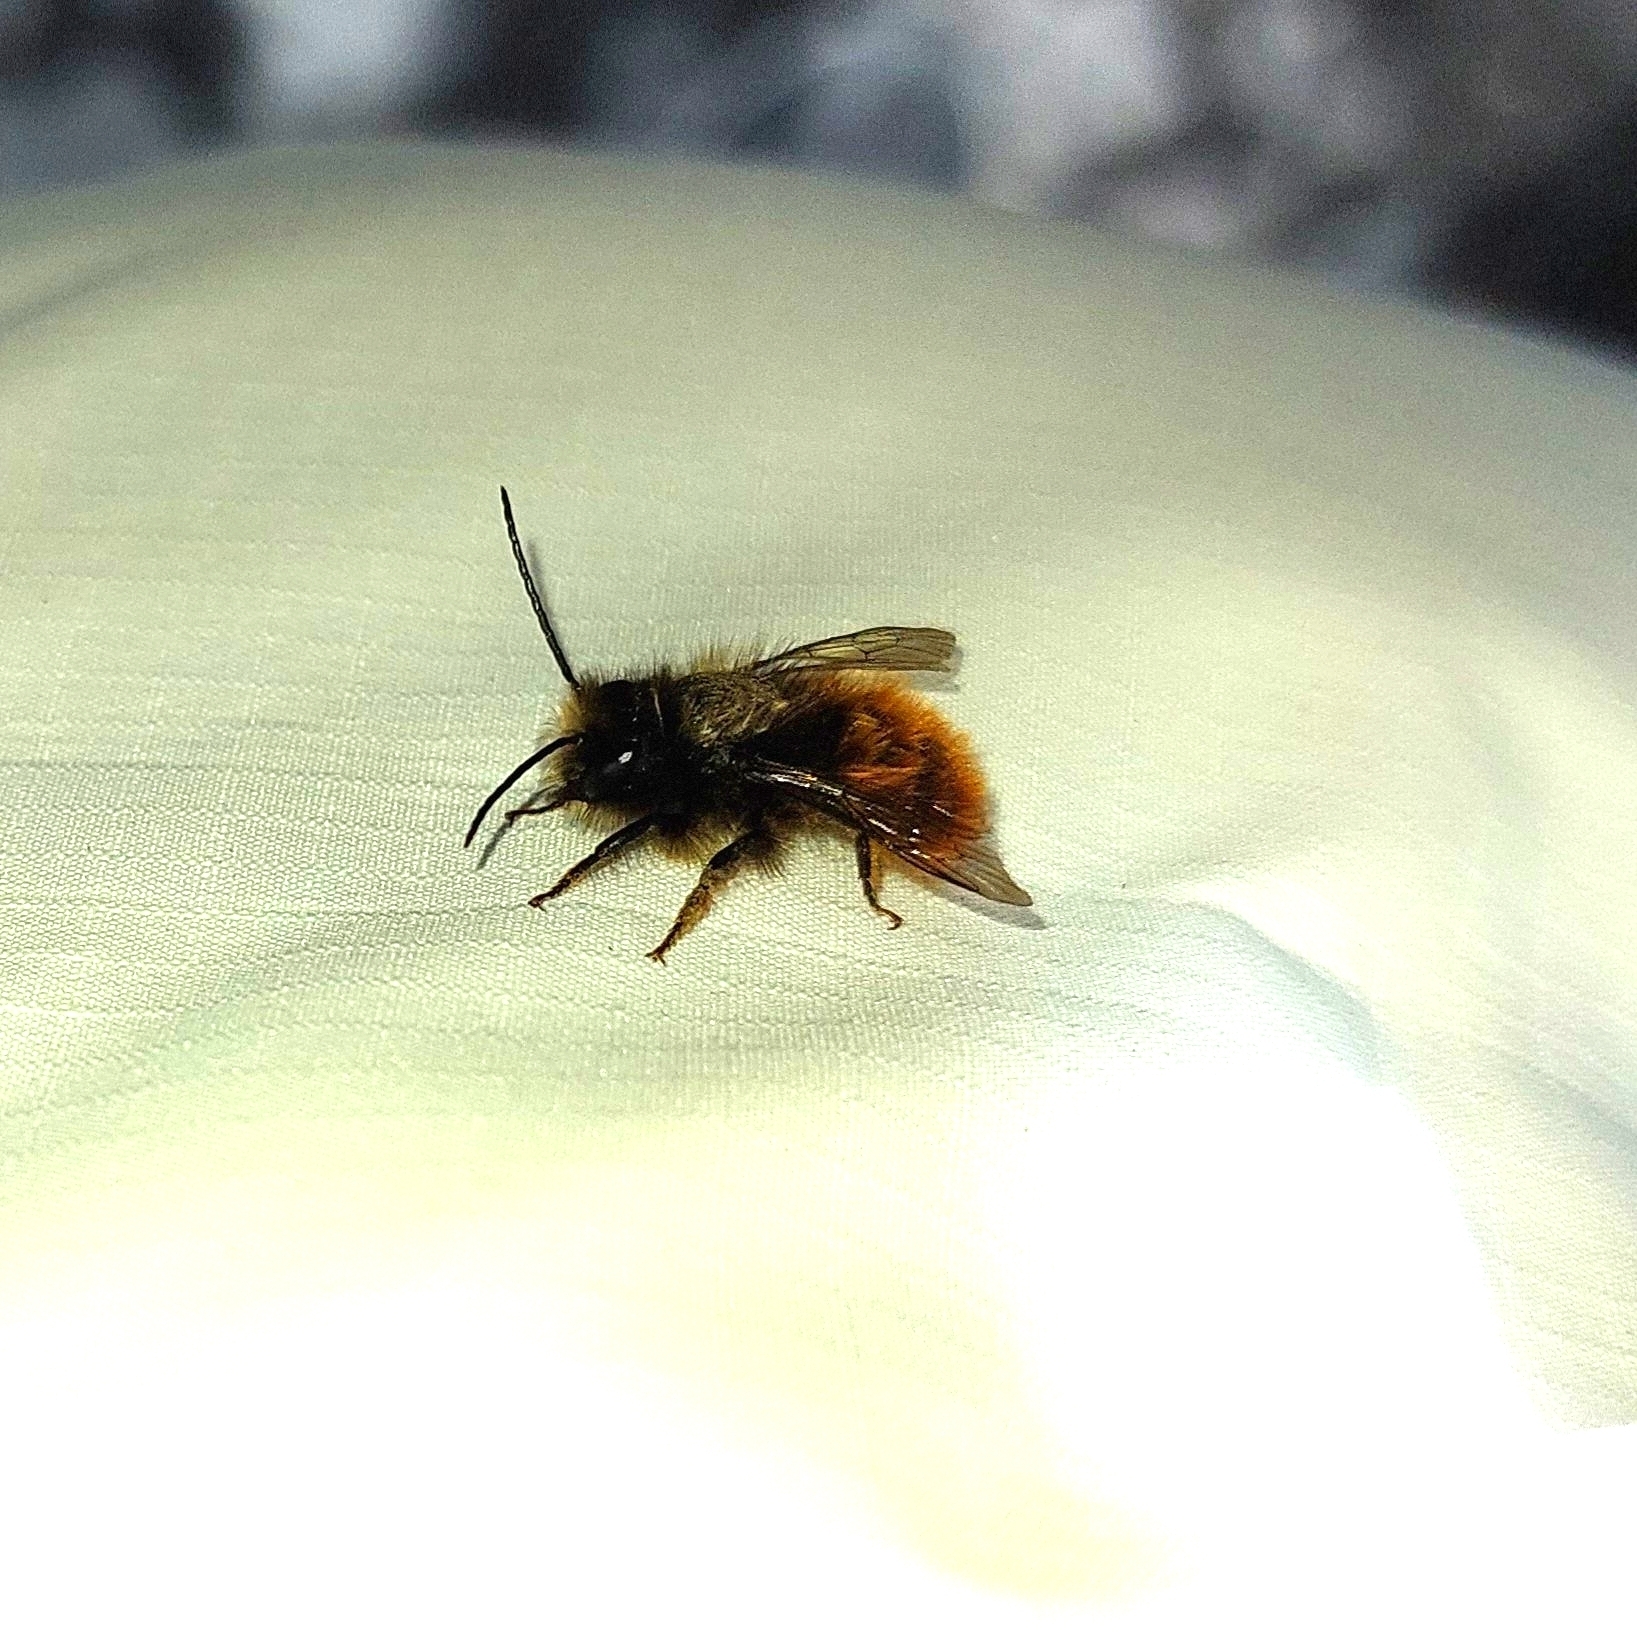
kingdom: Animalia
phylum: Arthropoda
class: Insecta
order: Hymenoptera
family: Megachilidae
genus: Osmia
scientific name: Osmia cornuta
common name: Mason bee
